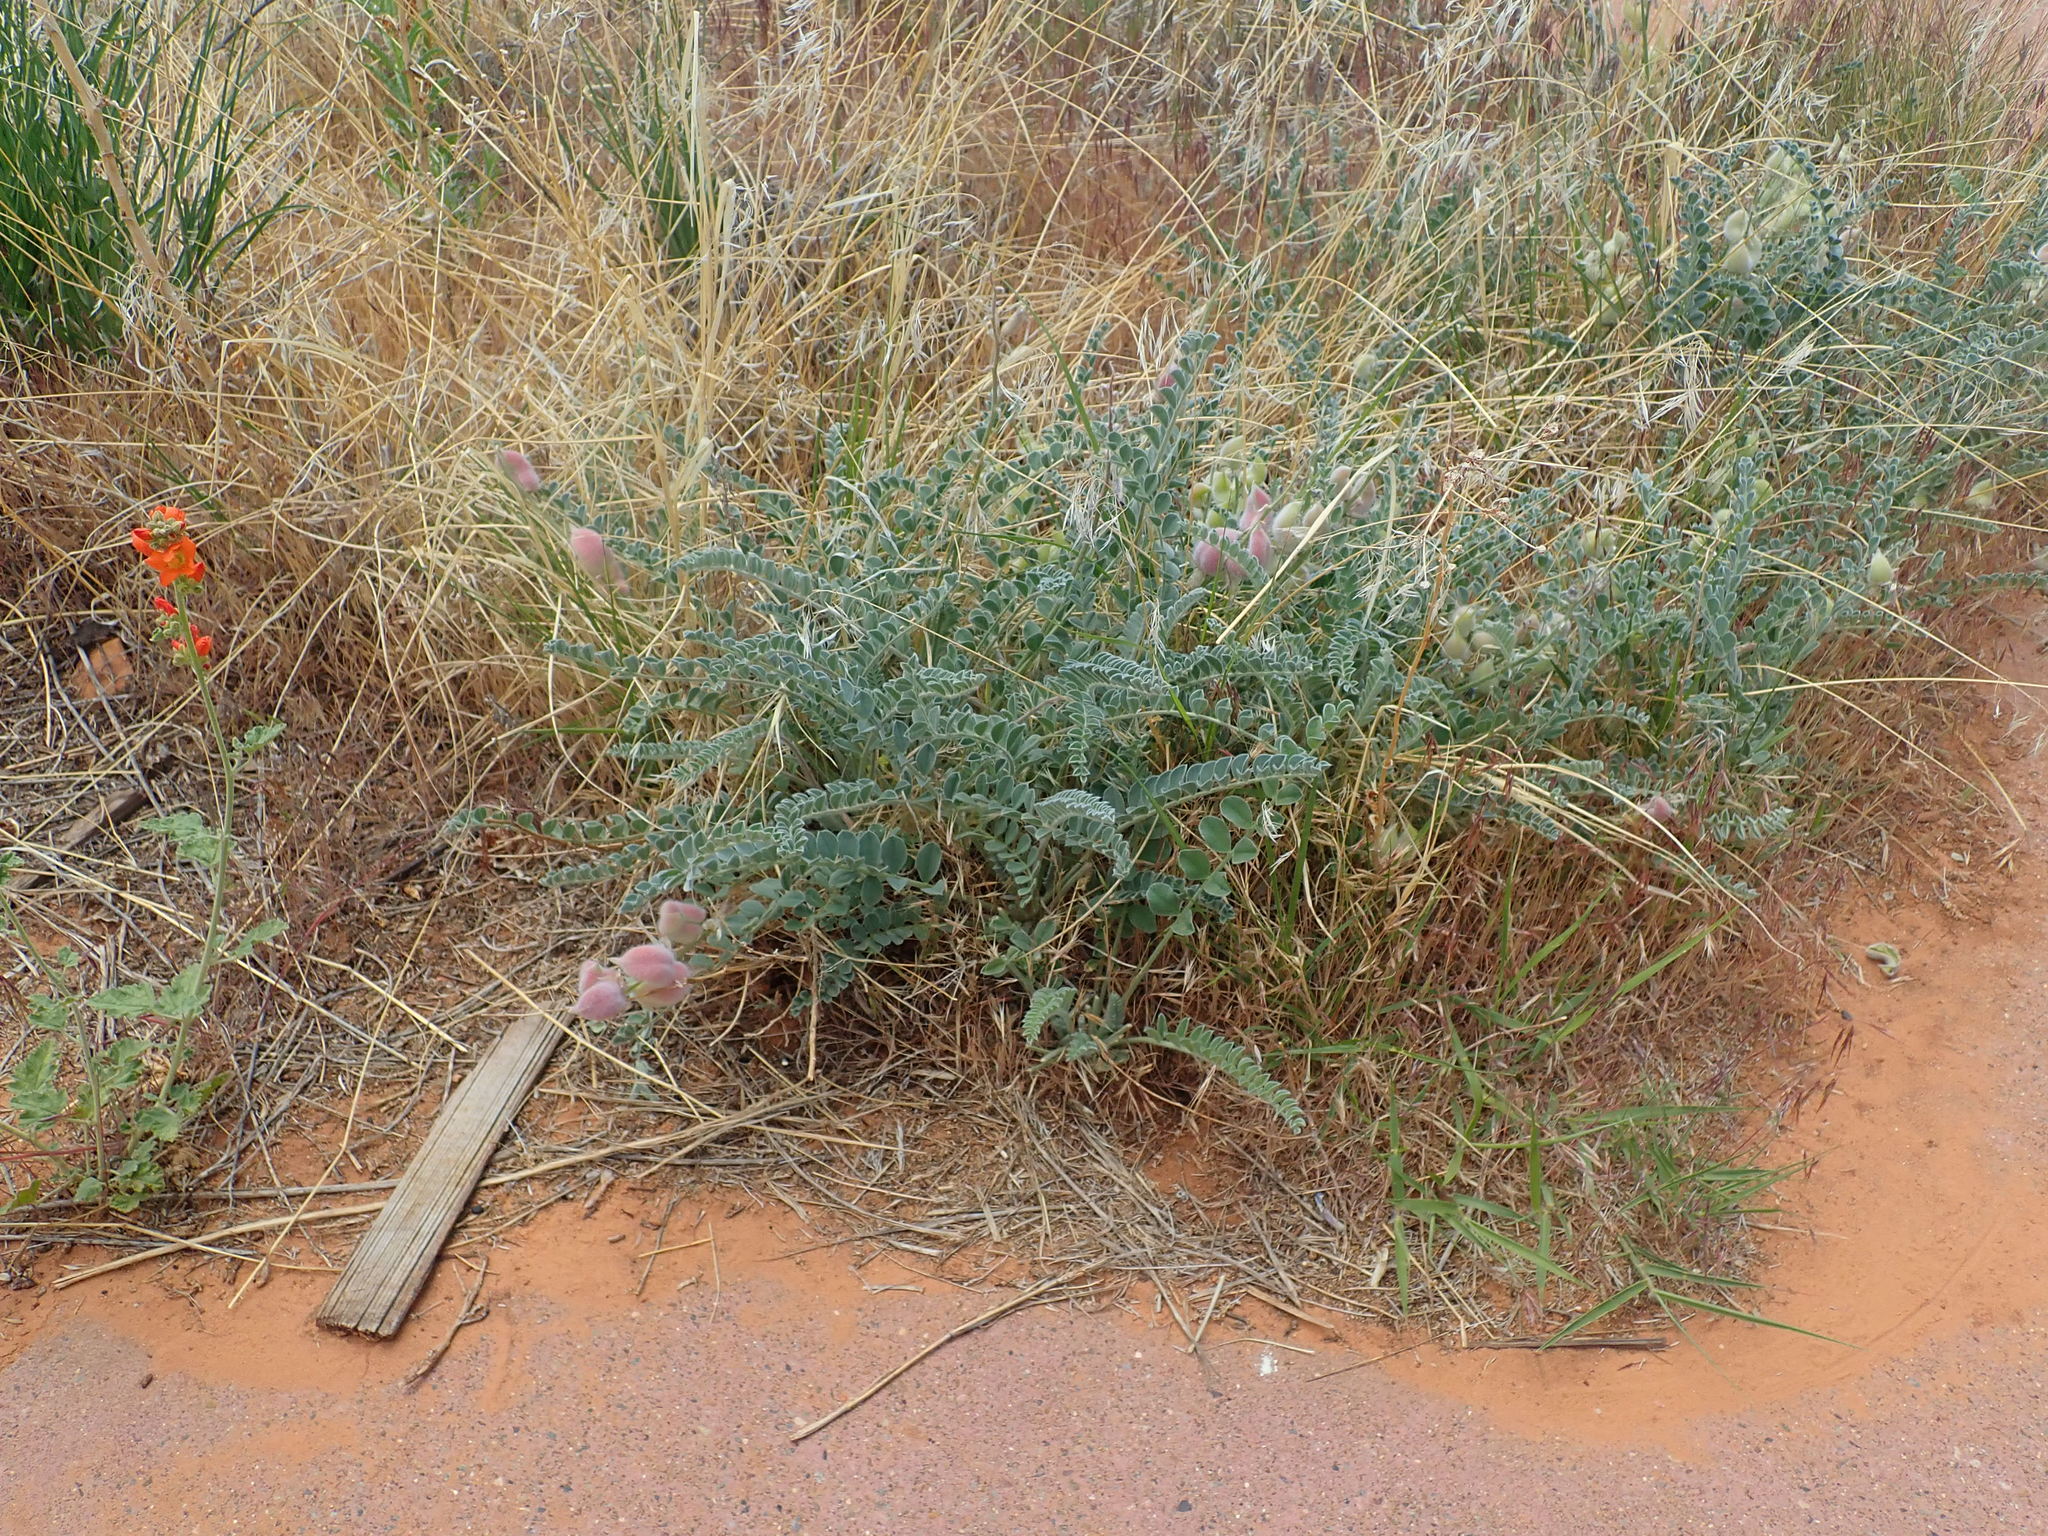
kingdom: Plantae
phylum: Tracheophyta
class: Magnoliopsida
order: Fabales
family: Fabaceae
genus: Astragalus
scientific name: Astragalus mollissimus
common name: Woolly locoweed
